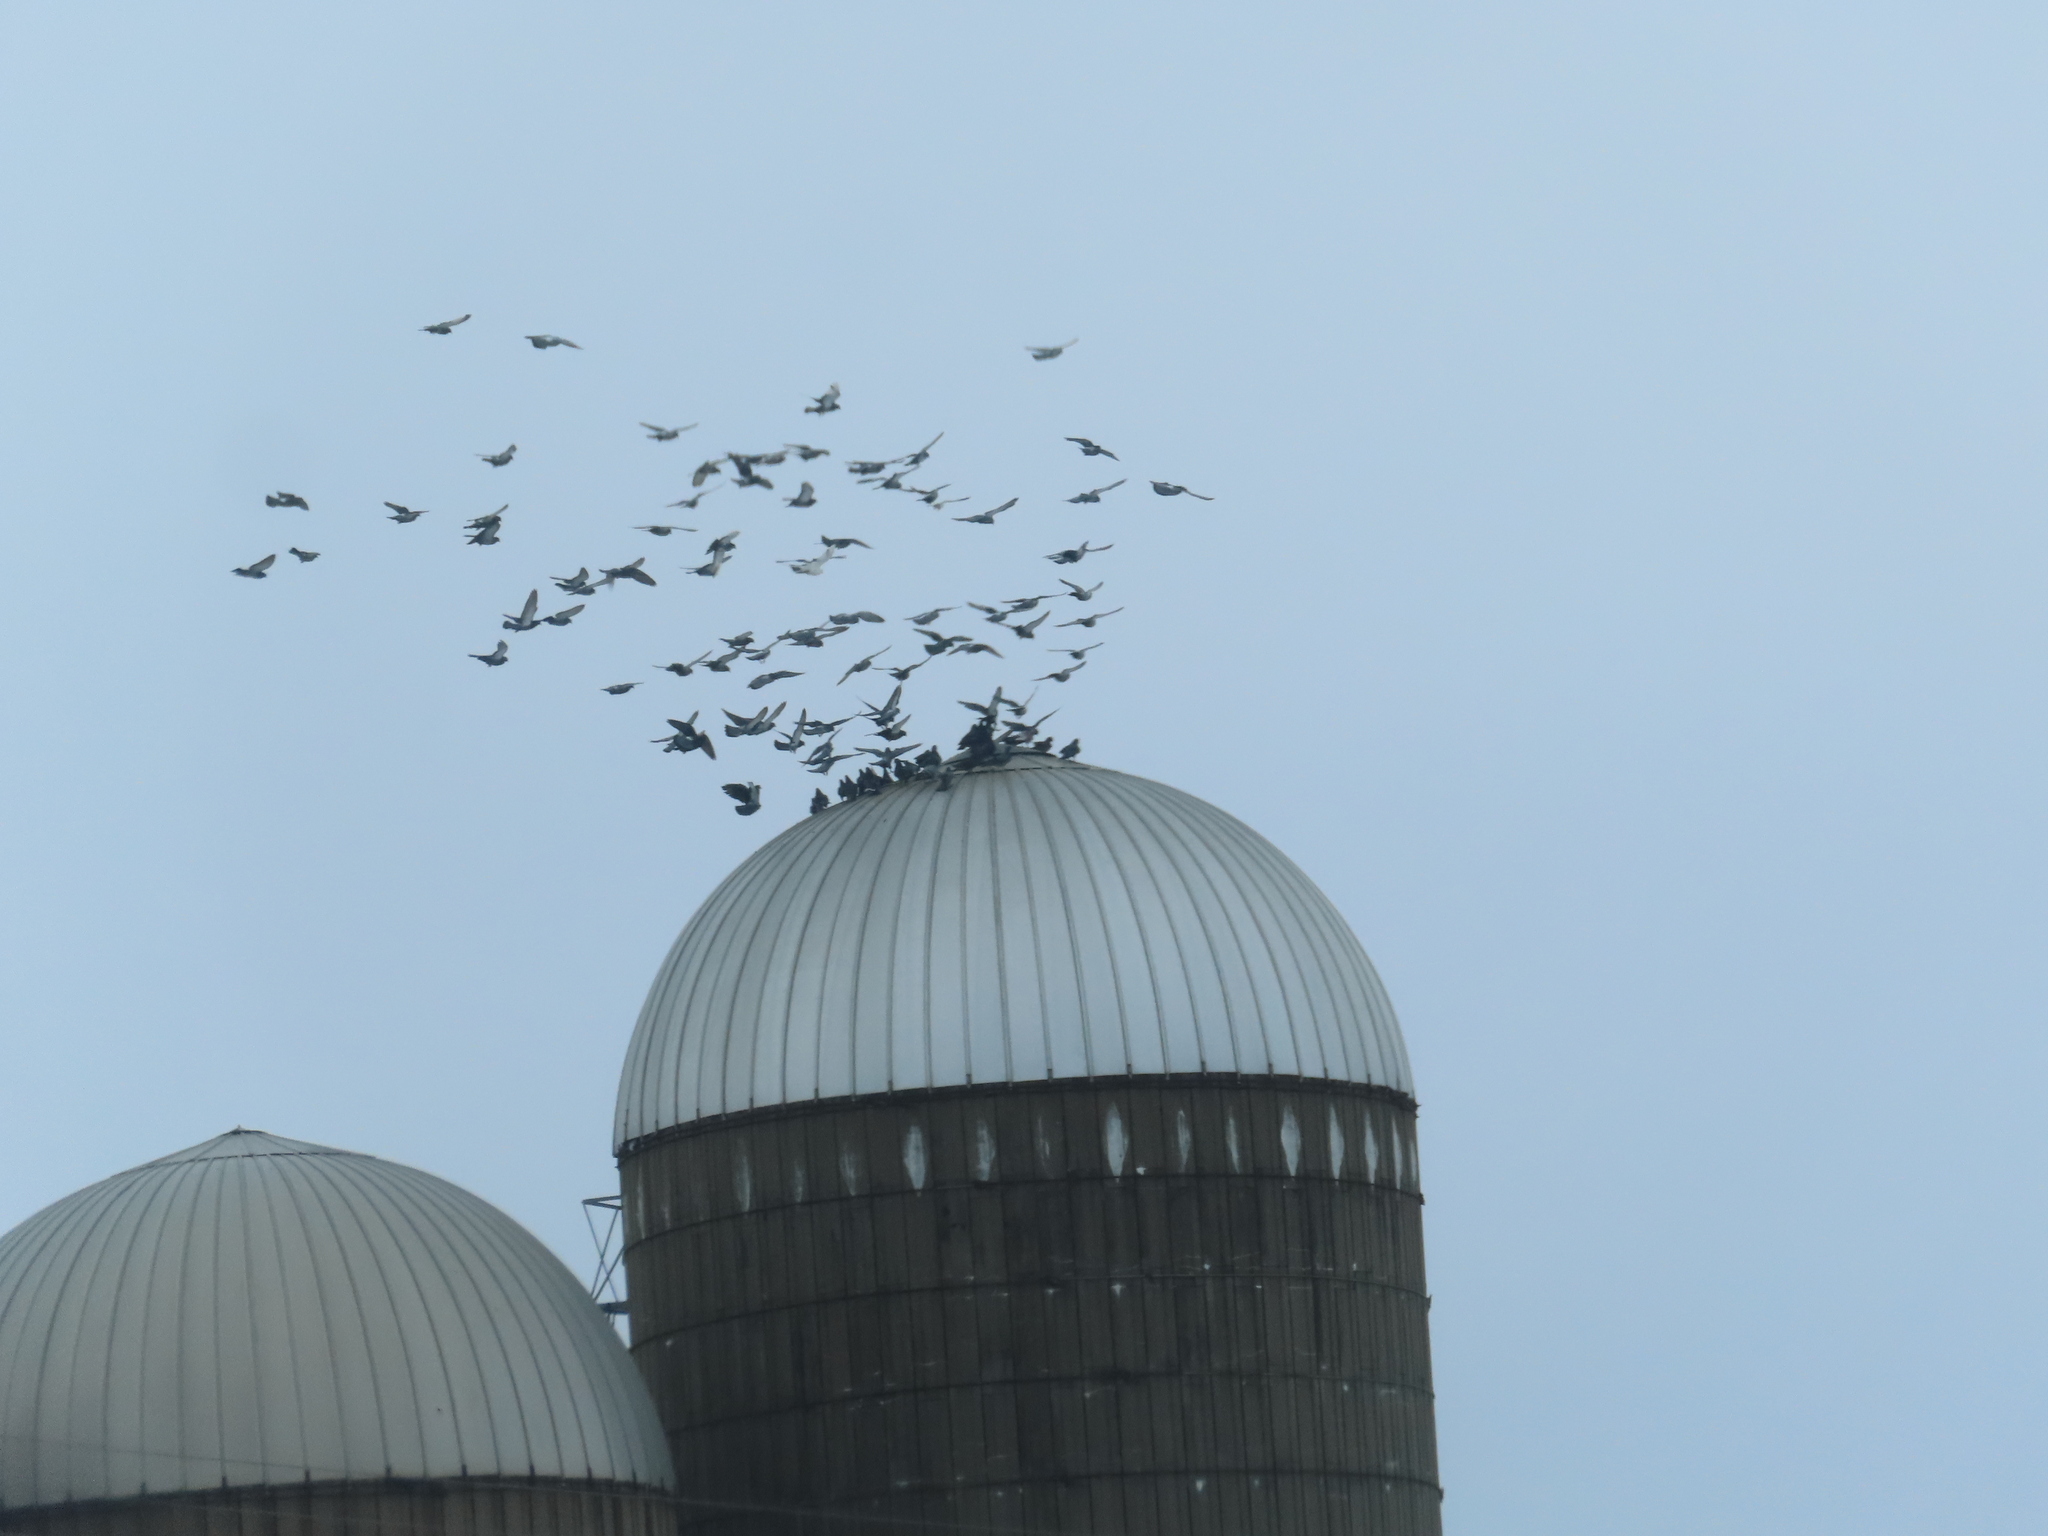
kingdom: Animalia
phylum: Chordata
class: Aves
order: Columbiformes
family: Columbidae
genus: Columba
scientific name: Columba livia
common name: Rock pigeon
